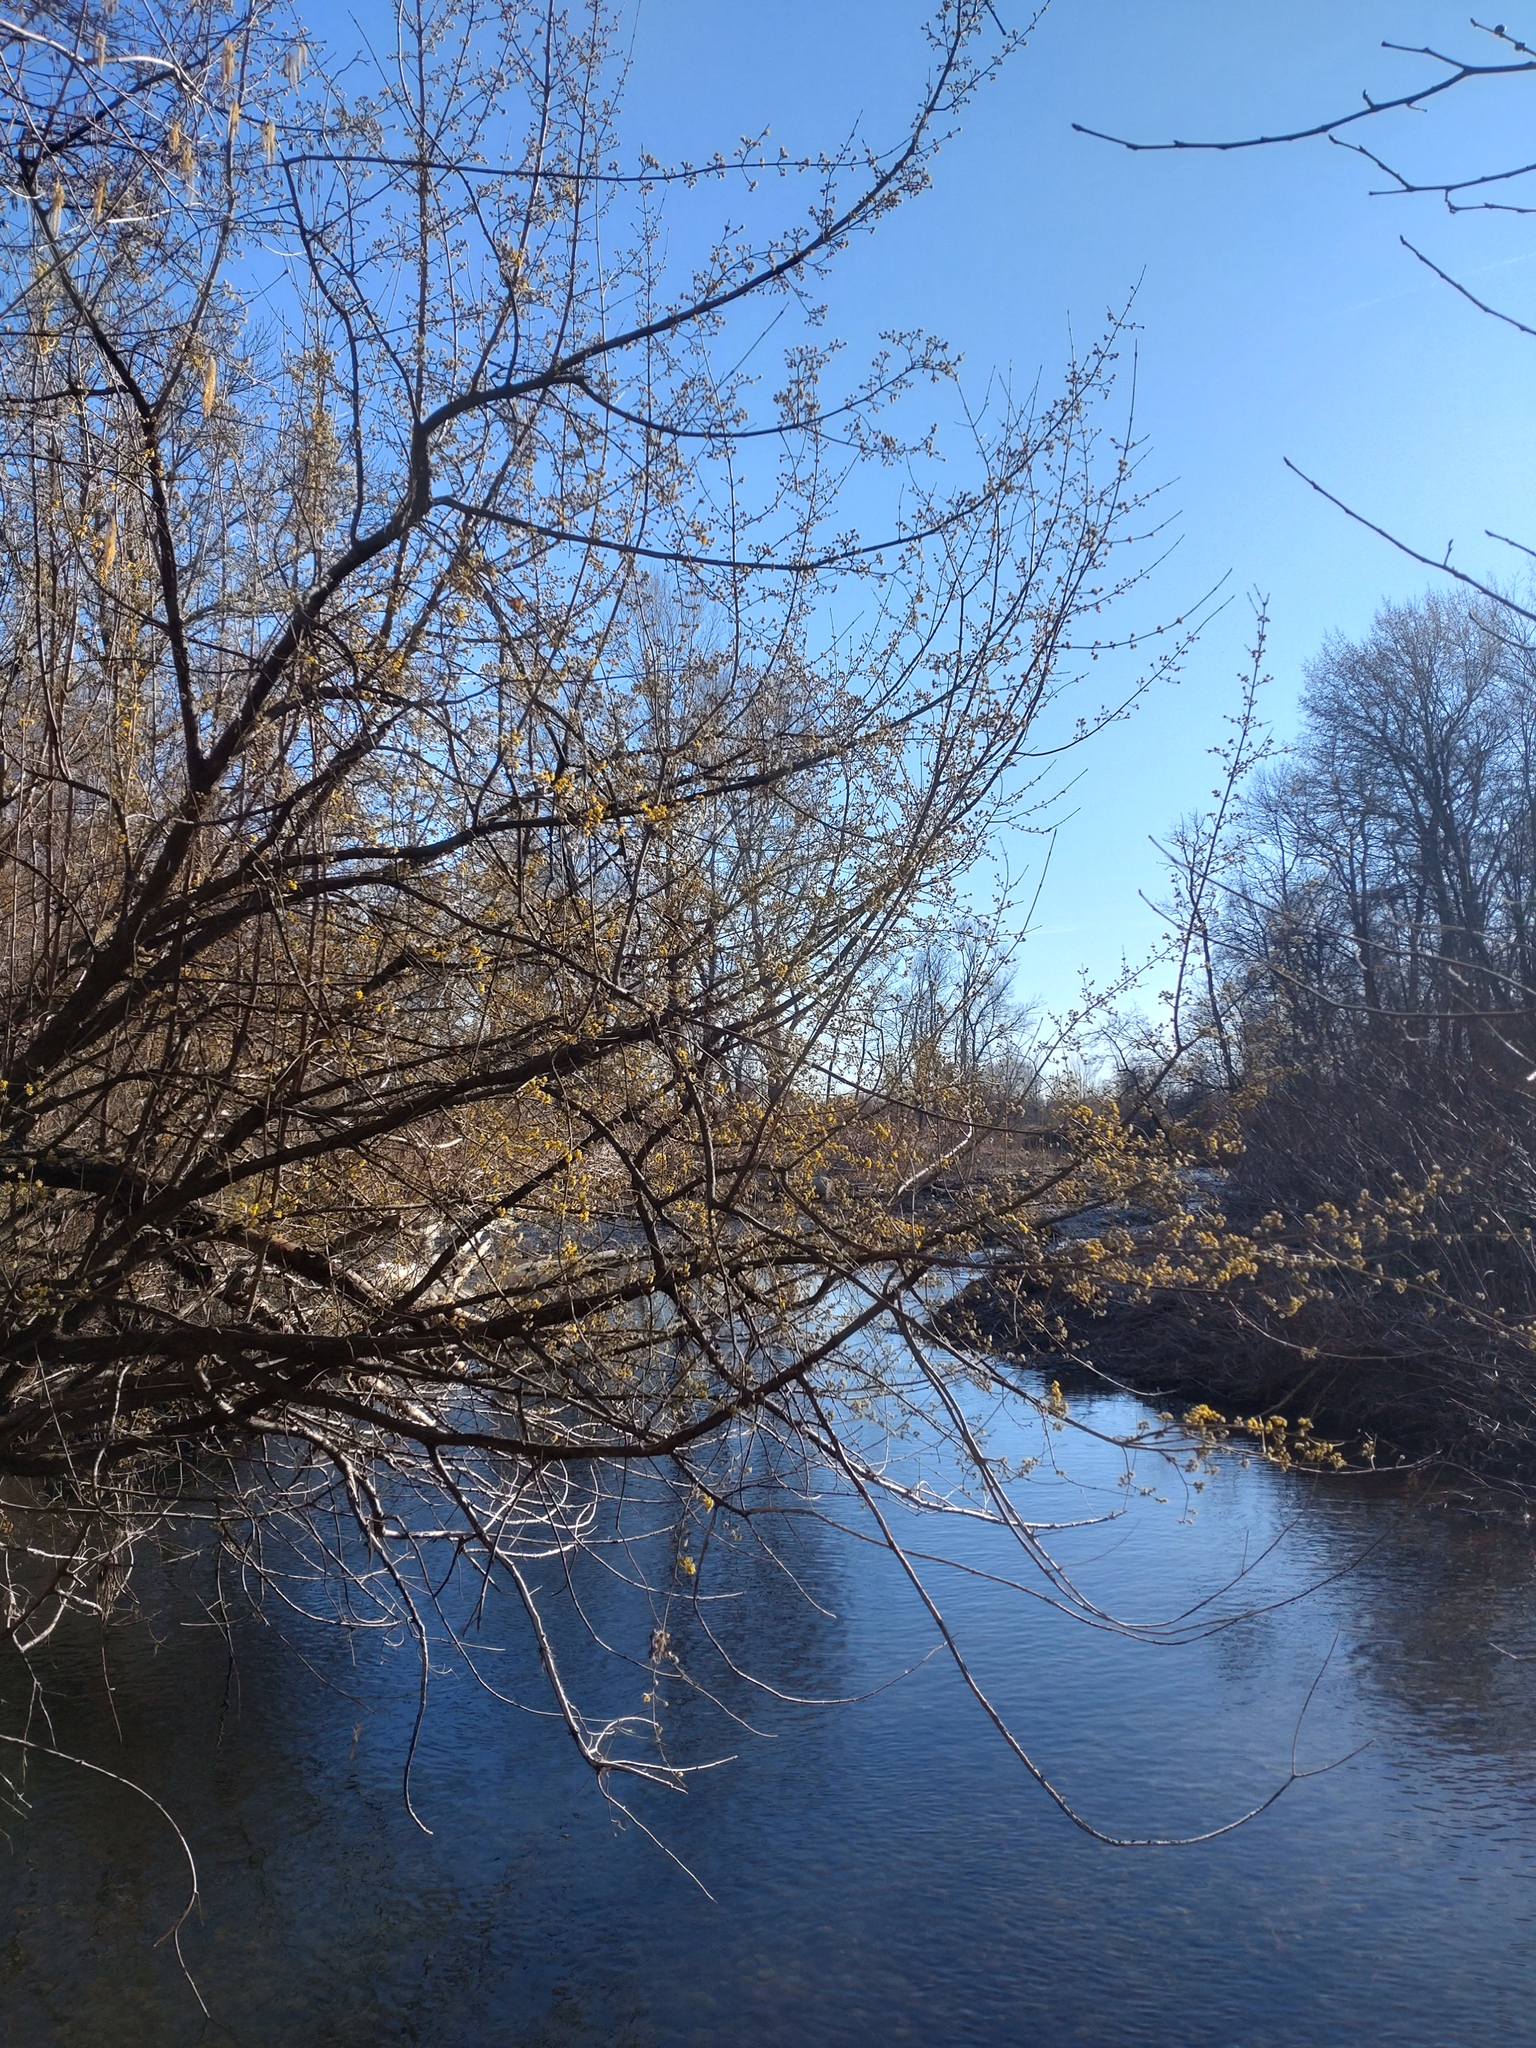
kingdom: Plantae
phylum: Tracheophyta
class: Magnoliopsida
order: Cornales
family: Cornaceae
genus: Cornus
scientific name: Cornus mas
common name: Cornelian-cherry
